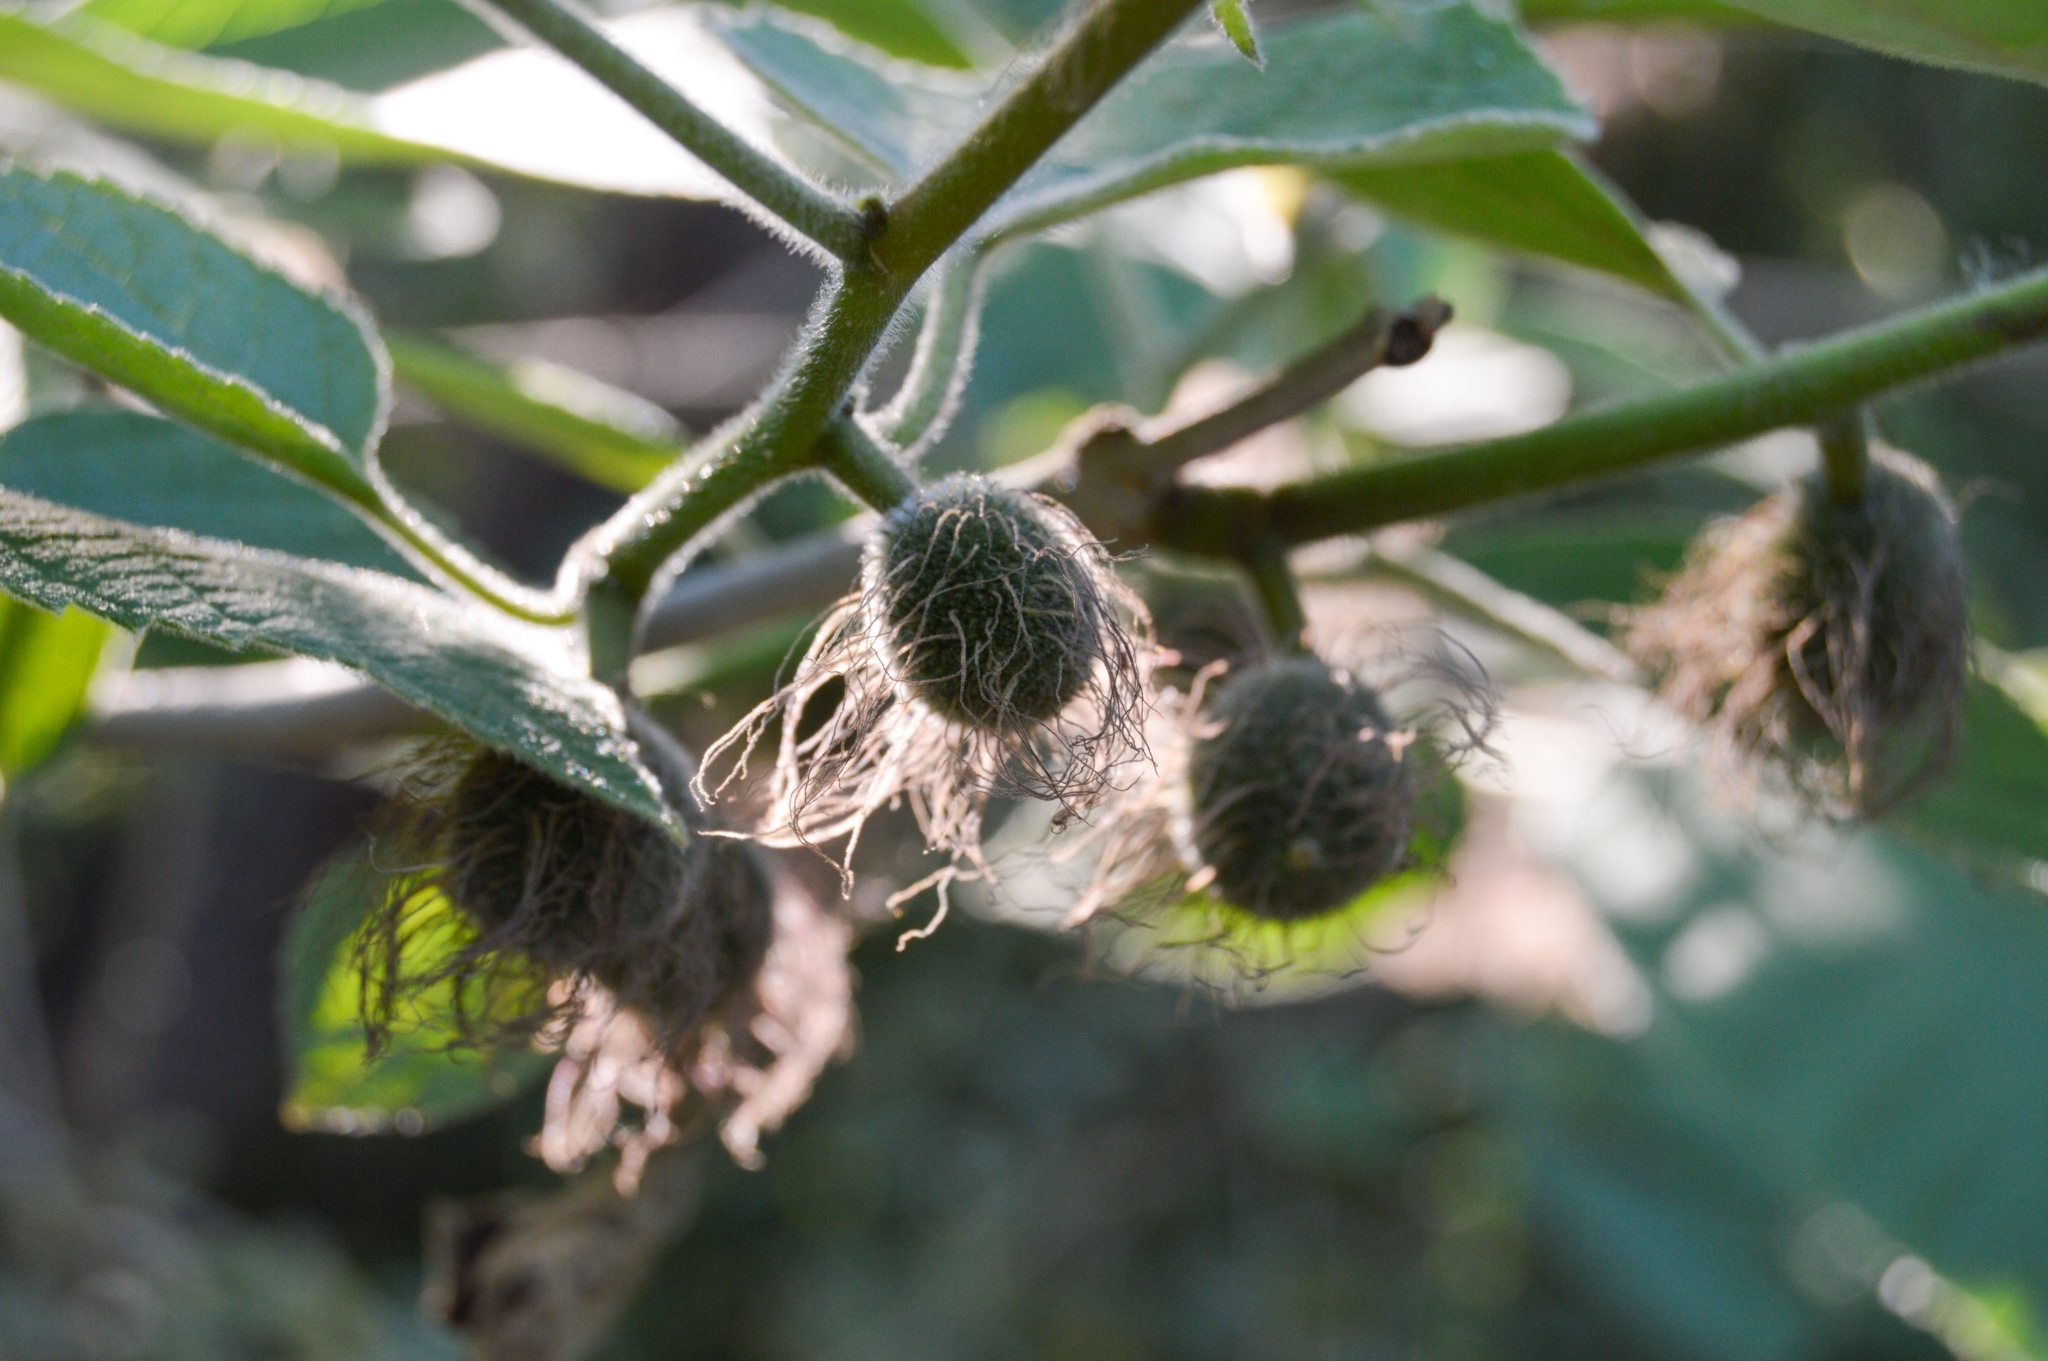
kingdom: Plantae
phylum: Tracheophyta
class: Magnoliopsida
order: Rosales
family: Moraceae
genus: Broussonetia
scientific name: Broussonetia papyrifera
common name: Paper mulberry
